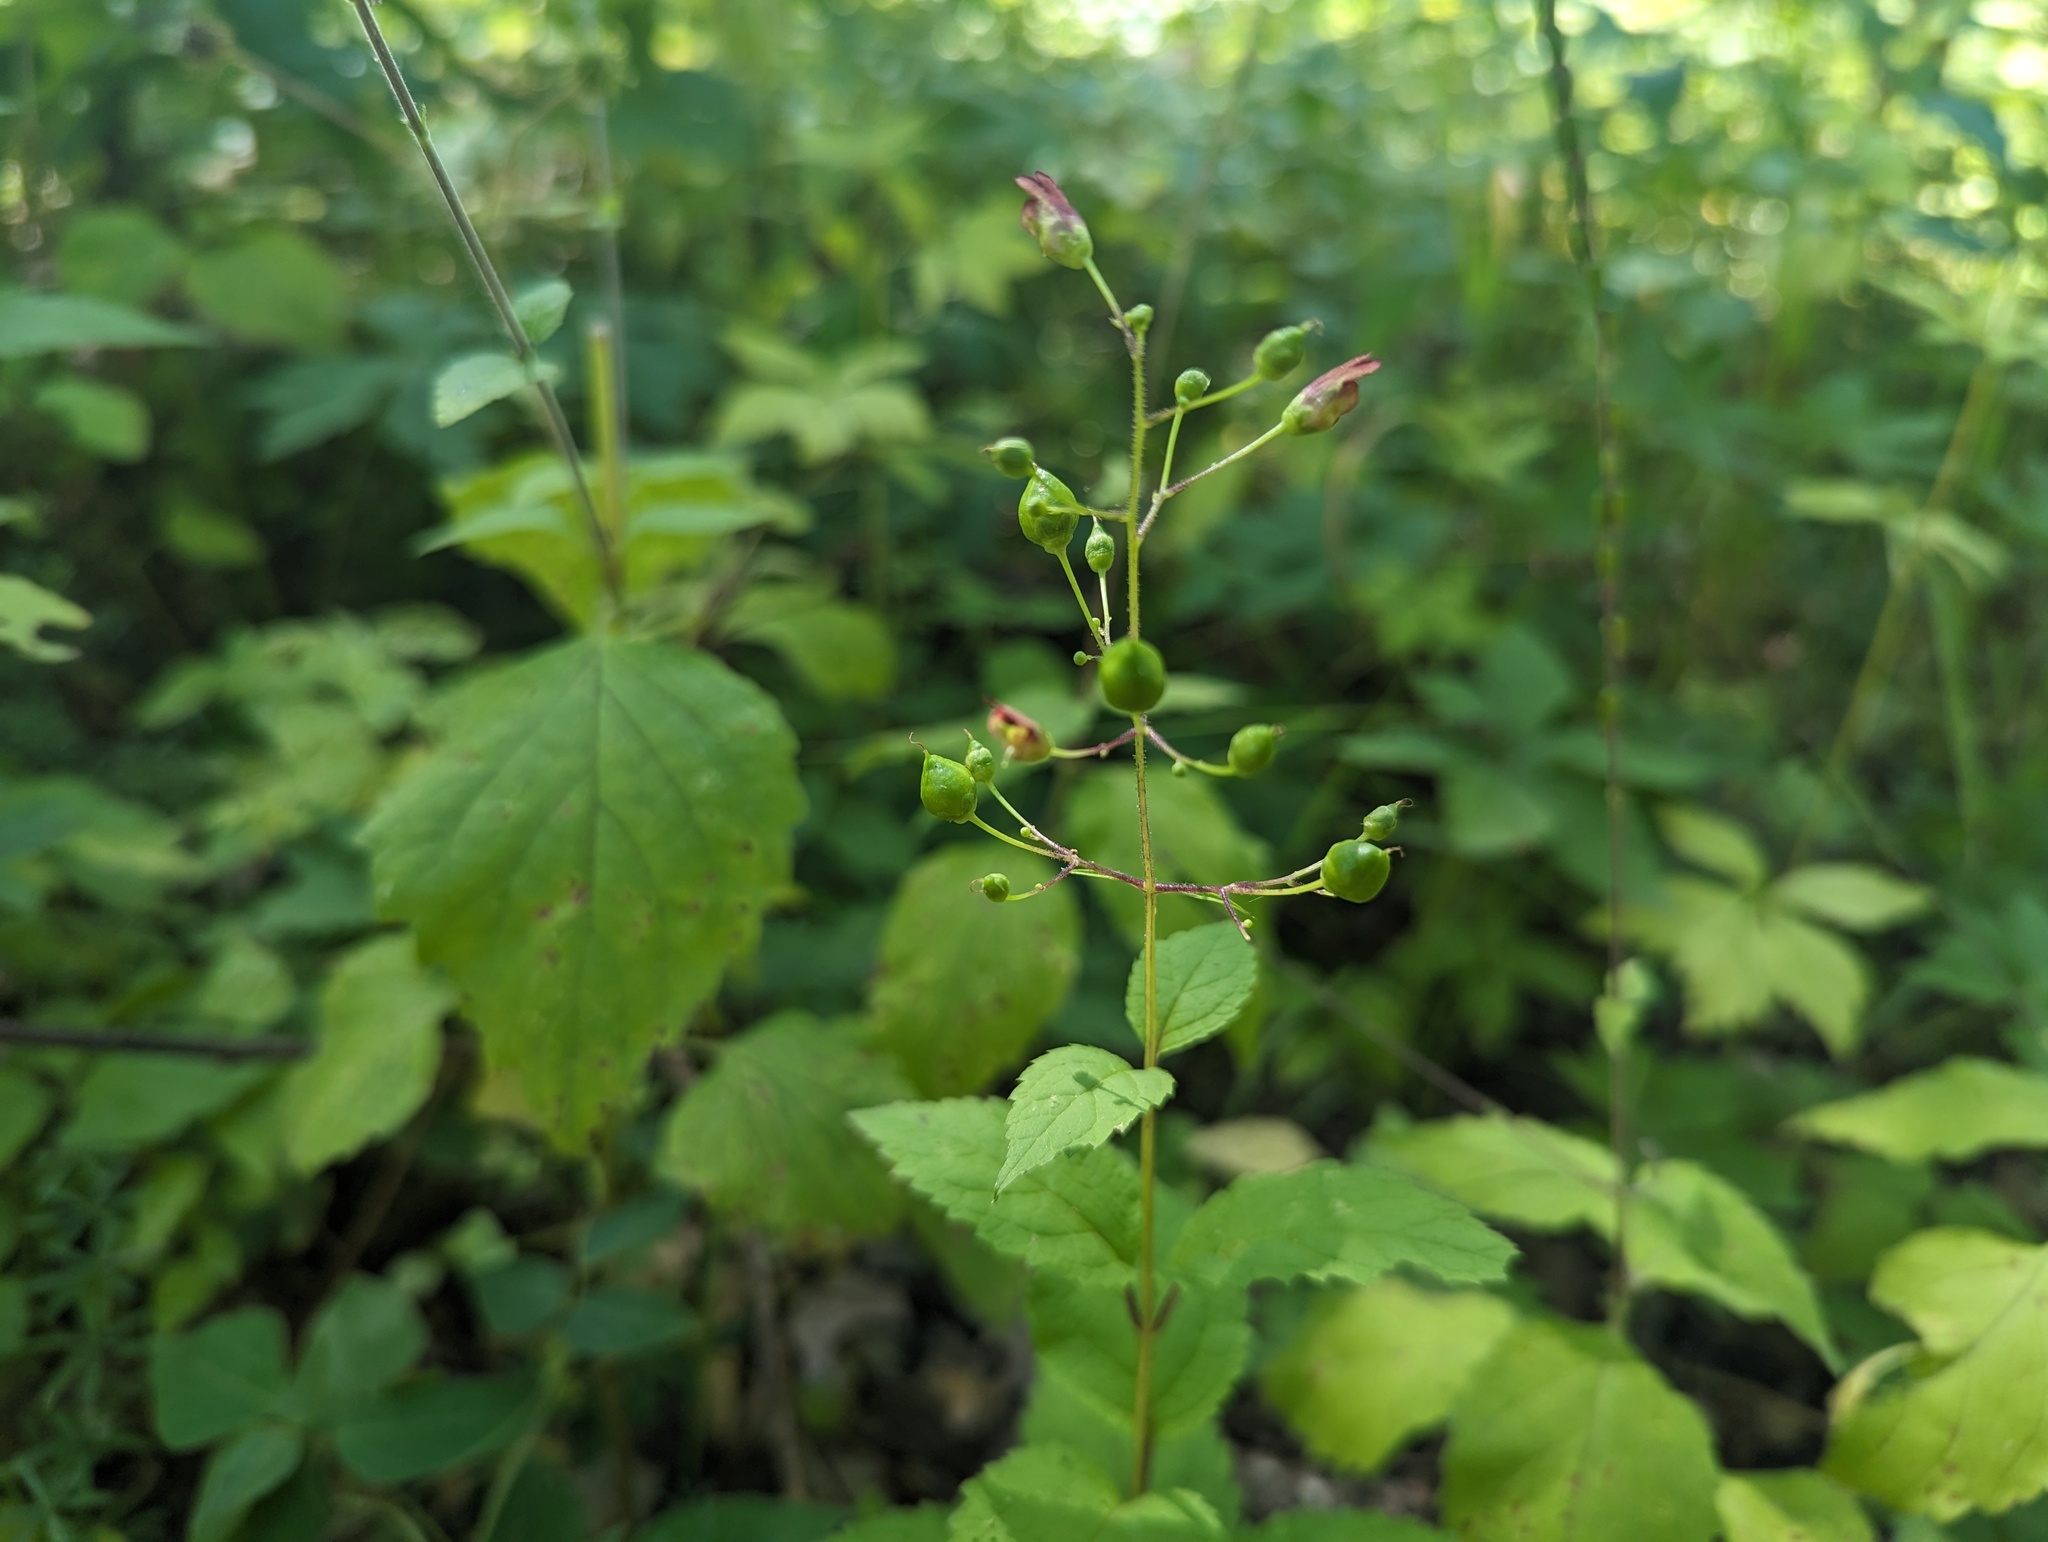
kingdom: Plantae
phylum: Tracheophyta
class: Magnoliopsida
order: Lamiales
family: Scrophulariaceae
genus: Scrophularia
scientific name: Scrophularia marilandica
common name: Eastern figwort
